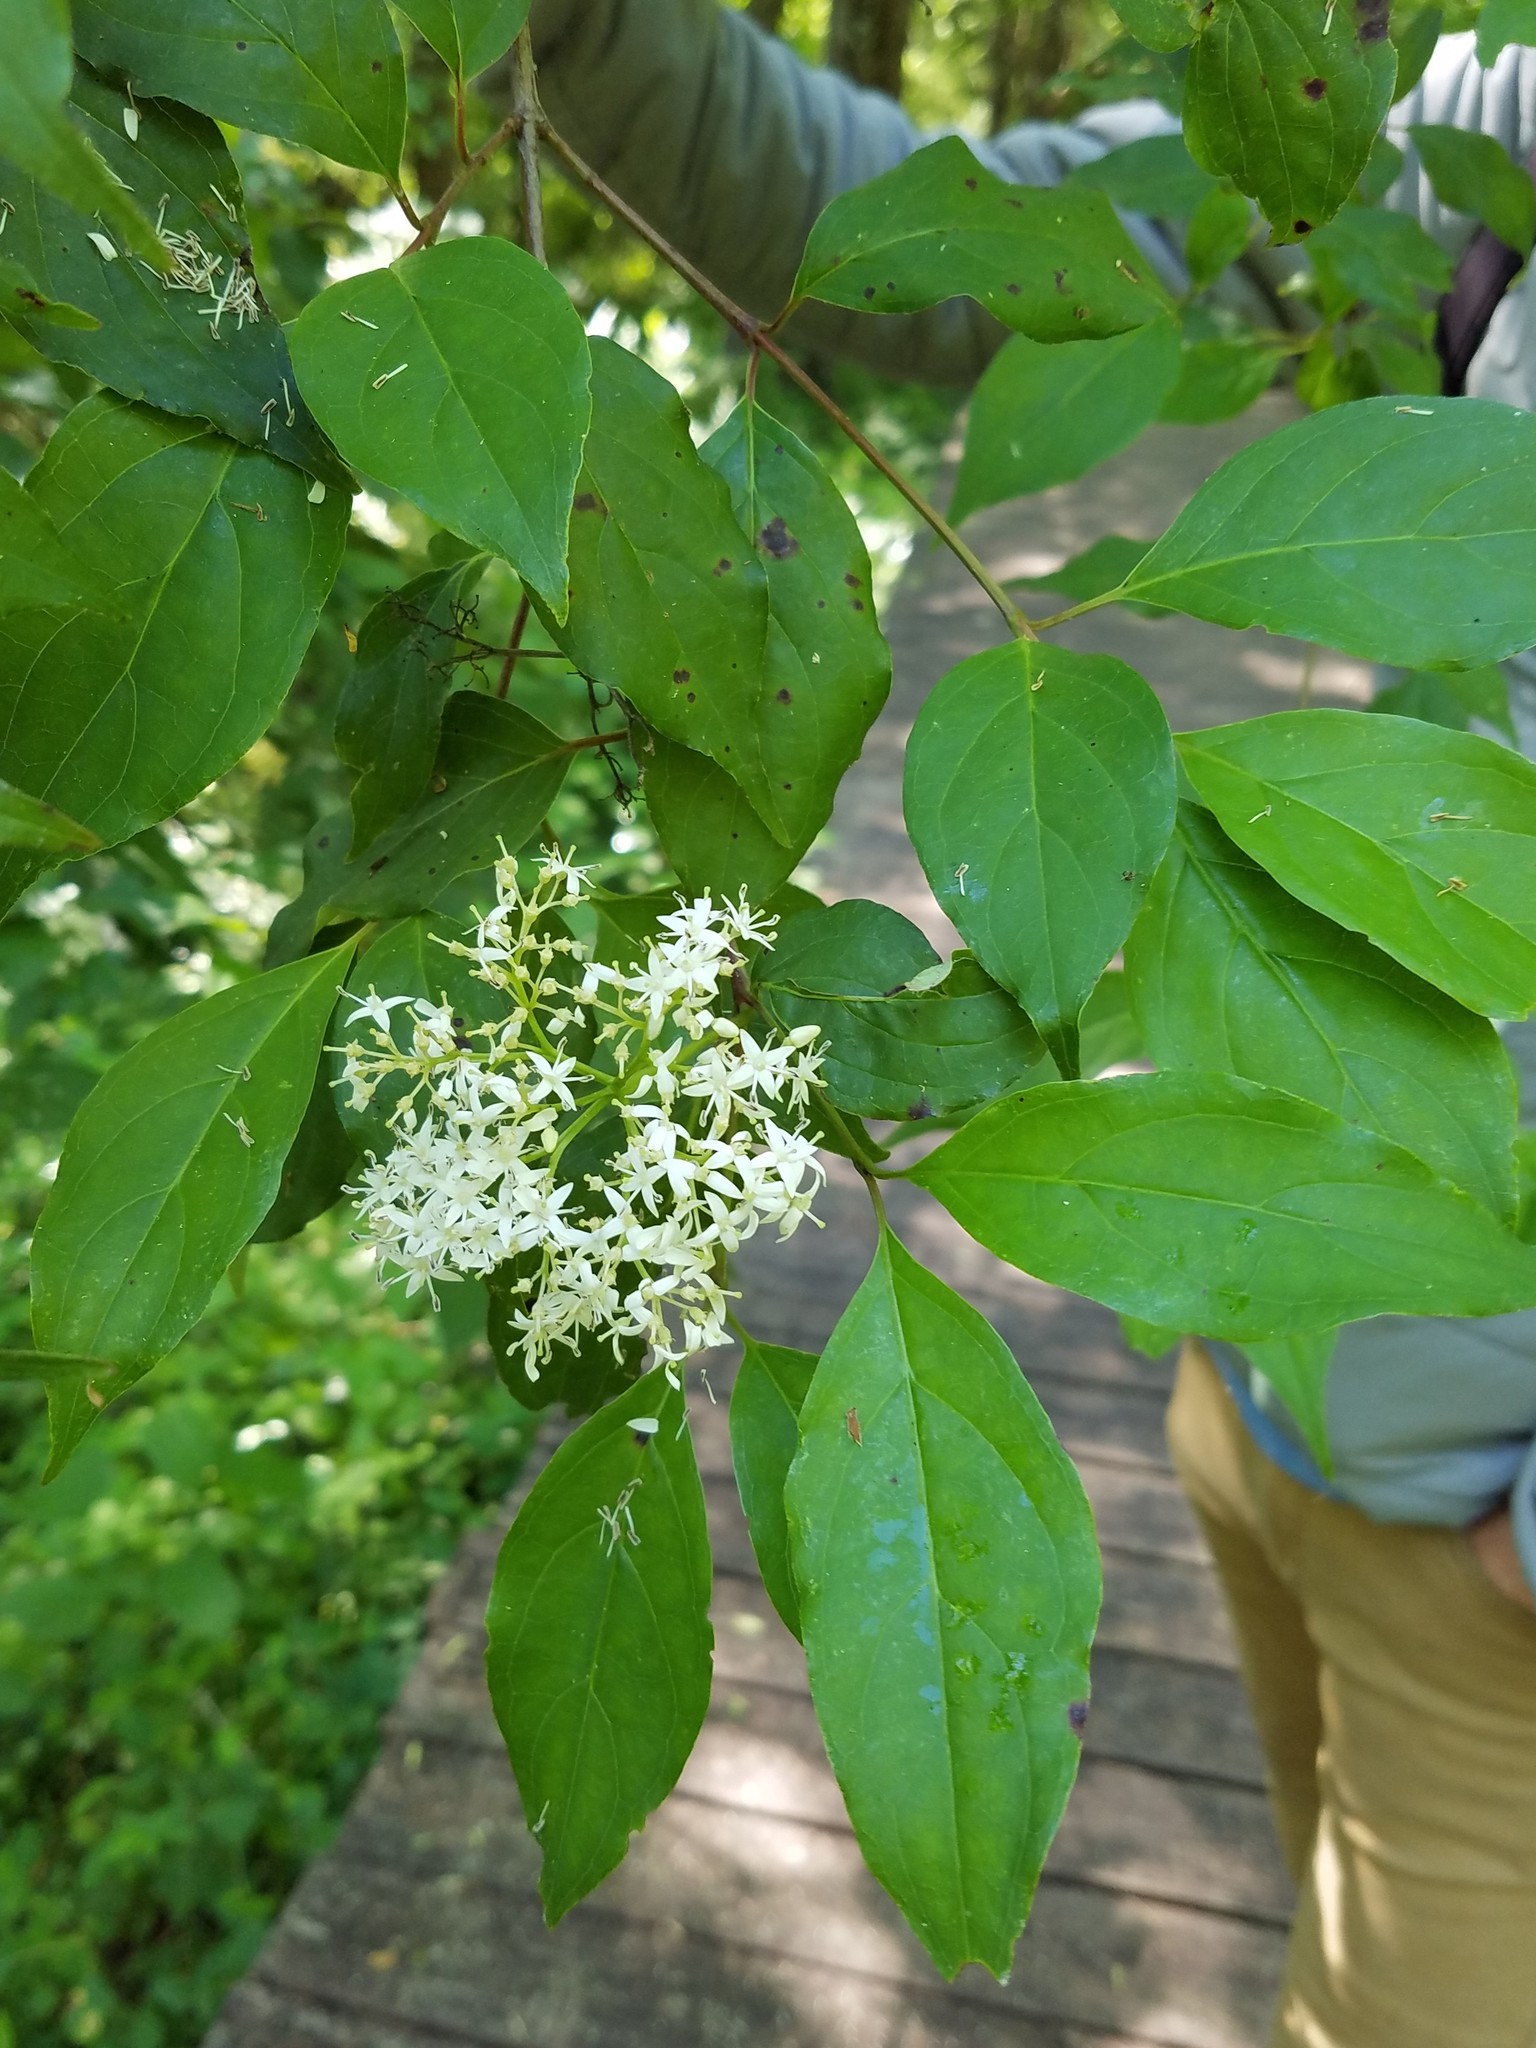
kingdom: Plantae
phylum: Tracheophyta
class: Magnoliopsida
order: Cornales
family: Cornaceae
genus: Cornus
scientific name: Cornus amomum
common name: Silky dogwood
